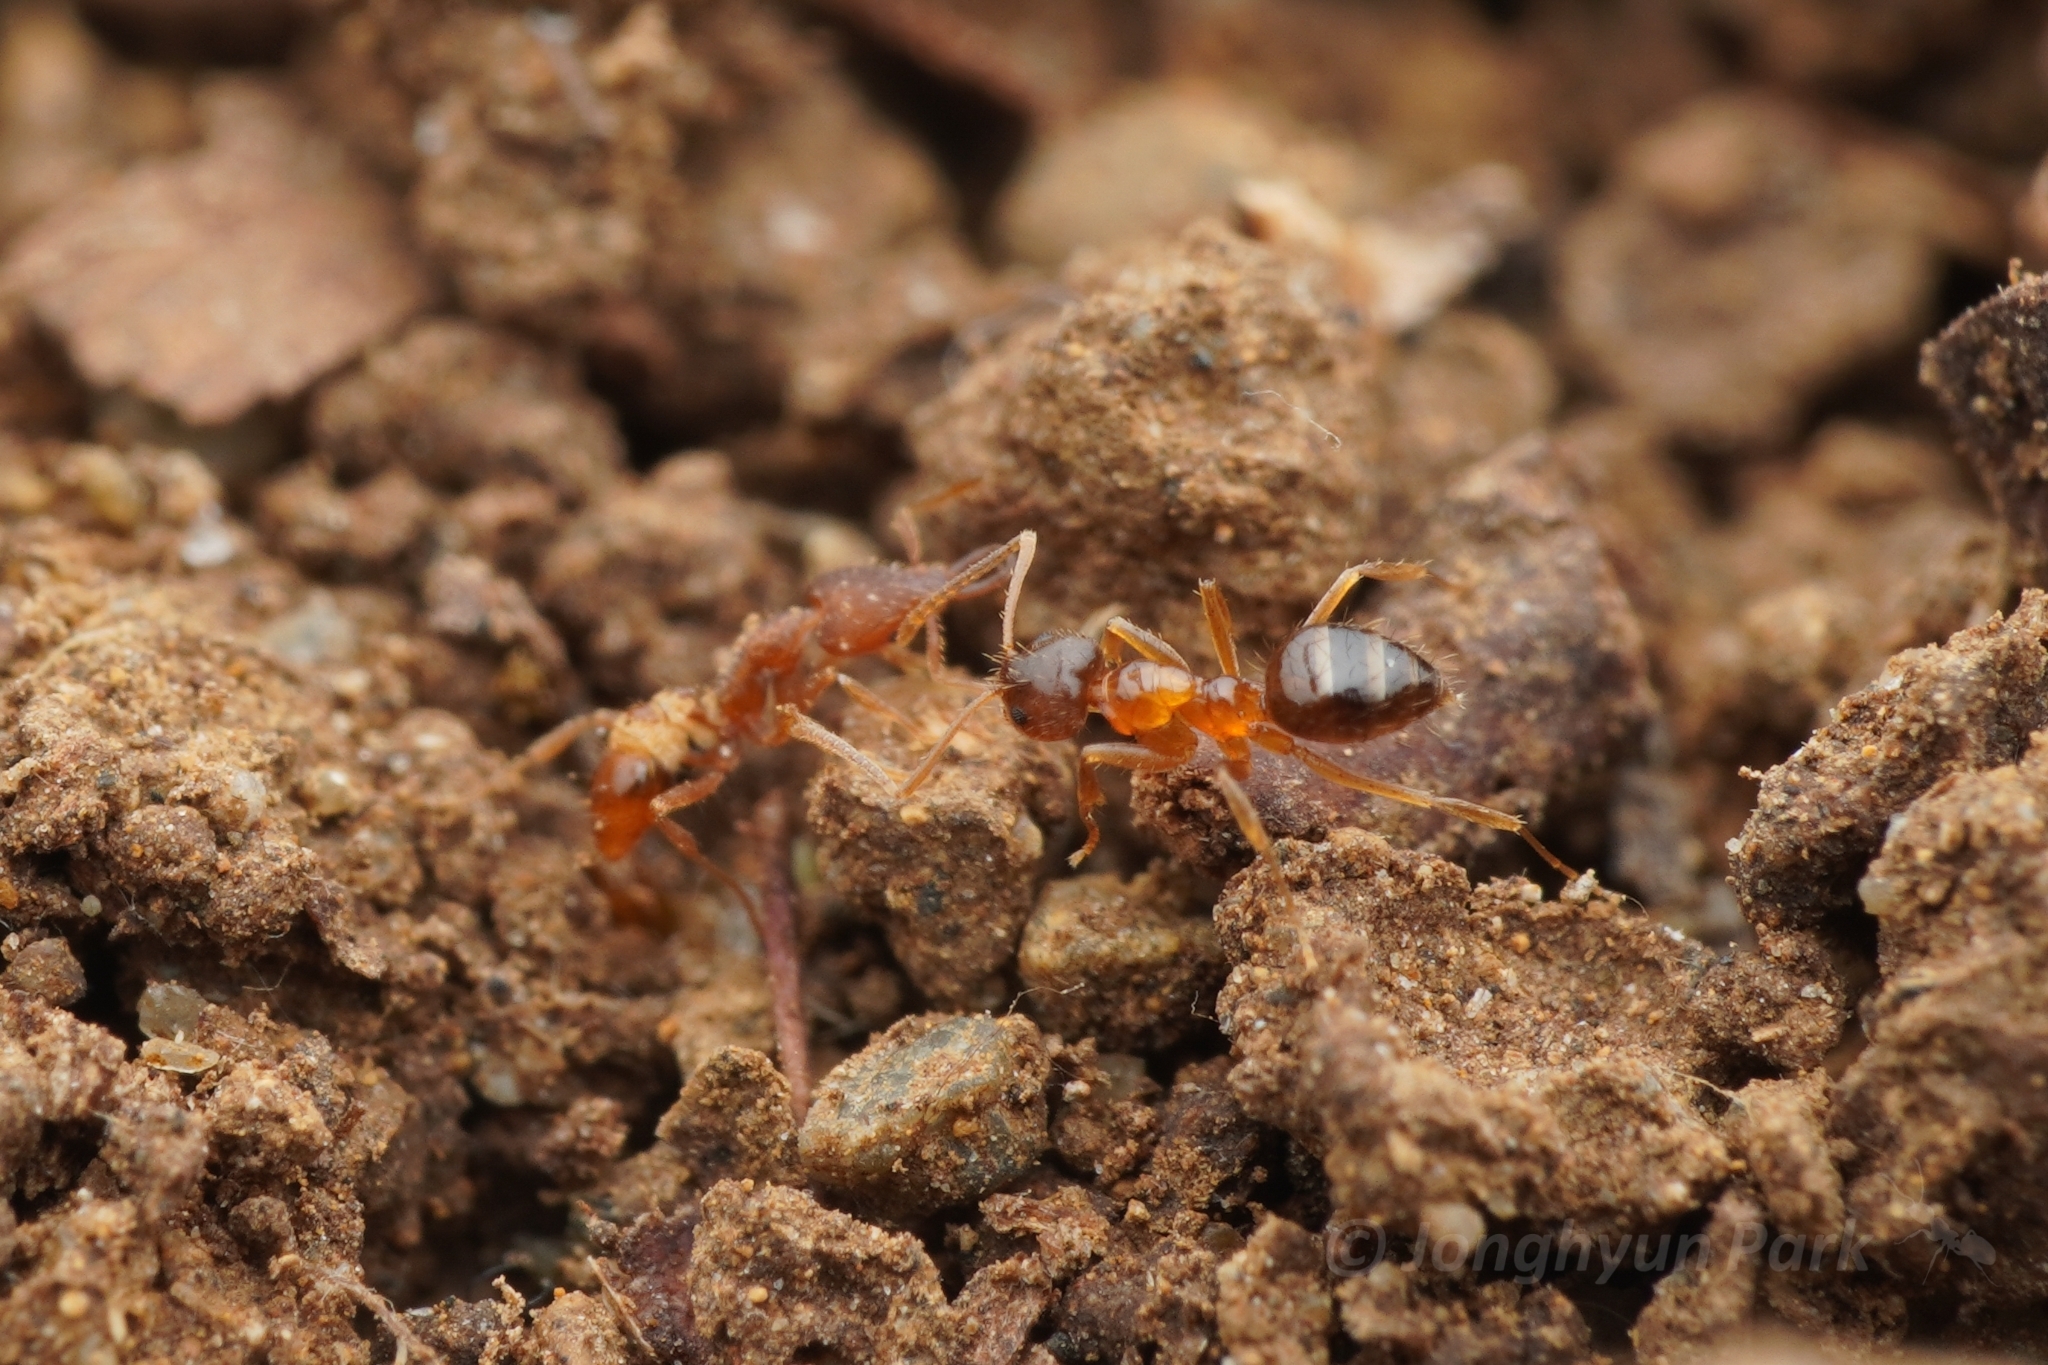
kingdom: Animalia
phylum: Arthropoda
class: Insecta
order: Hymenoptera
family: Formicidae
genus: Paratrechina
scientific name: Paratrechina flavipes
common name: Eastern asian formicine ant
